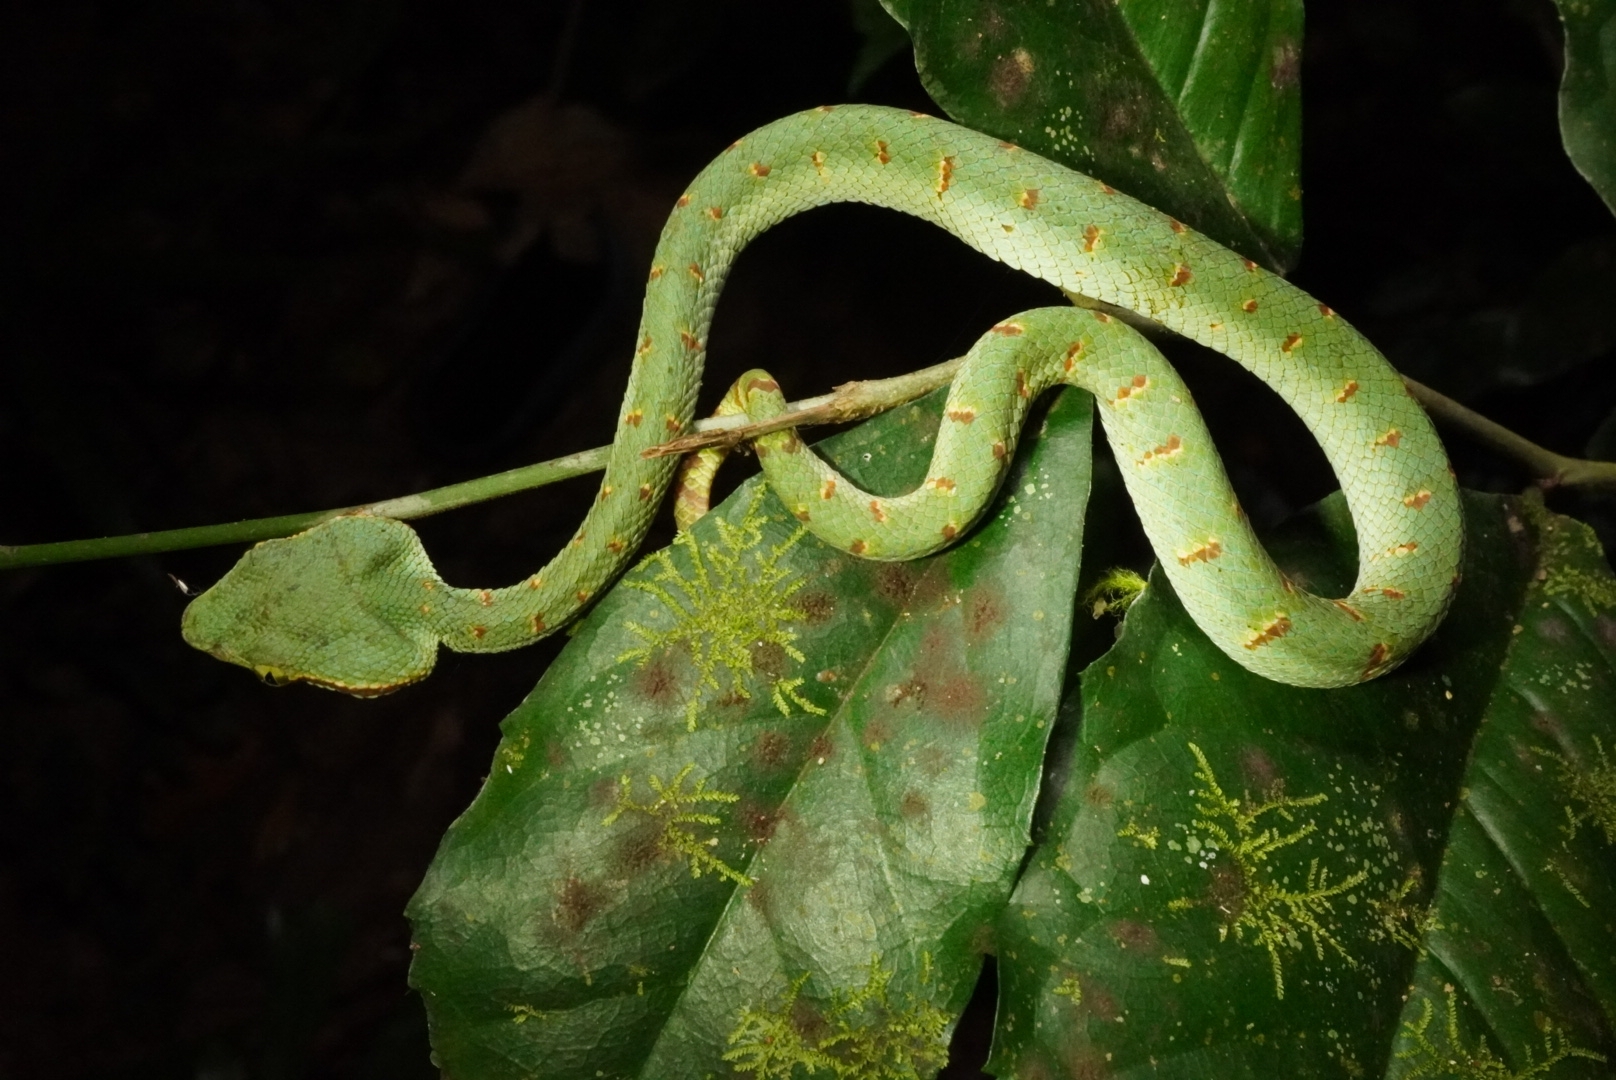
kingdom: Animalia
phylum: Chordata
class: Squamata
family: Viperidae
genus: Tropidolaemus
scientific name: Tropidolaemus wagleri
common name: Wagler's palm viper
